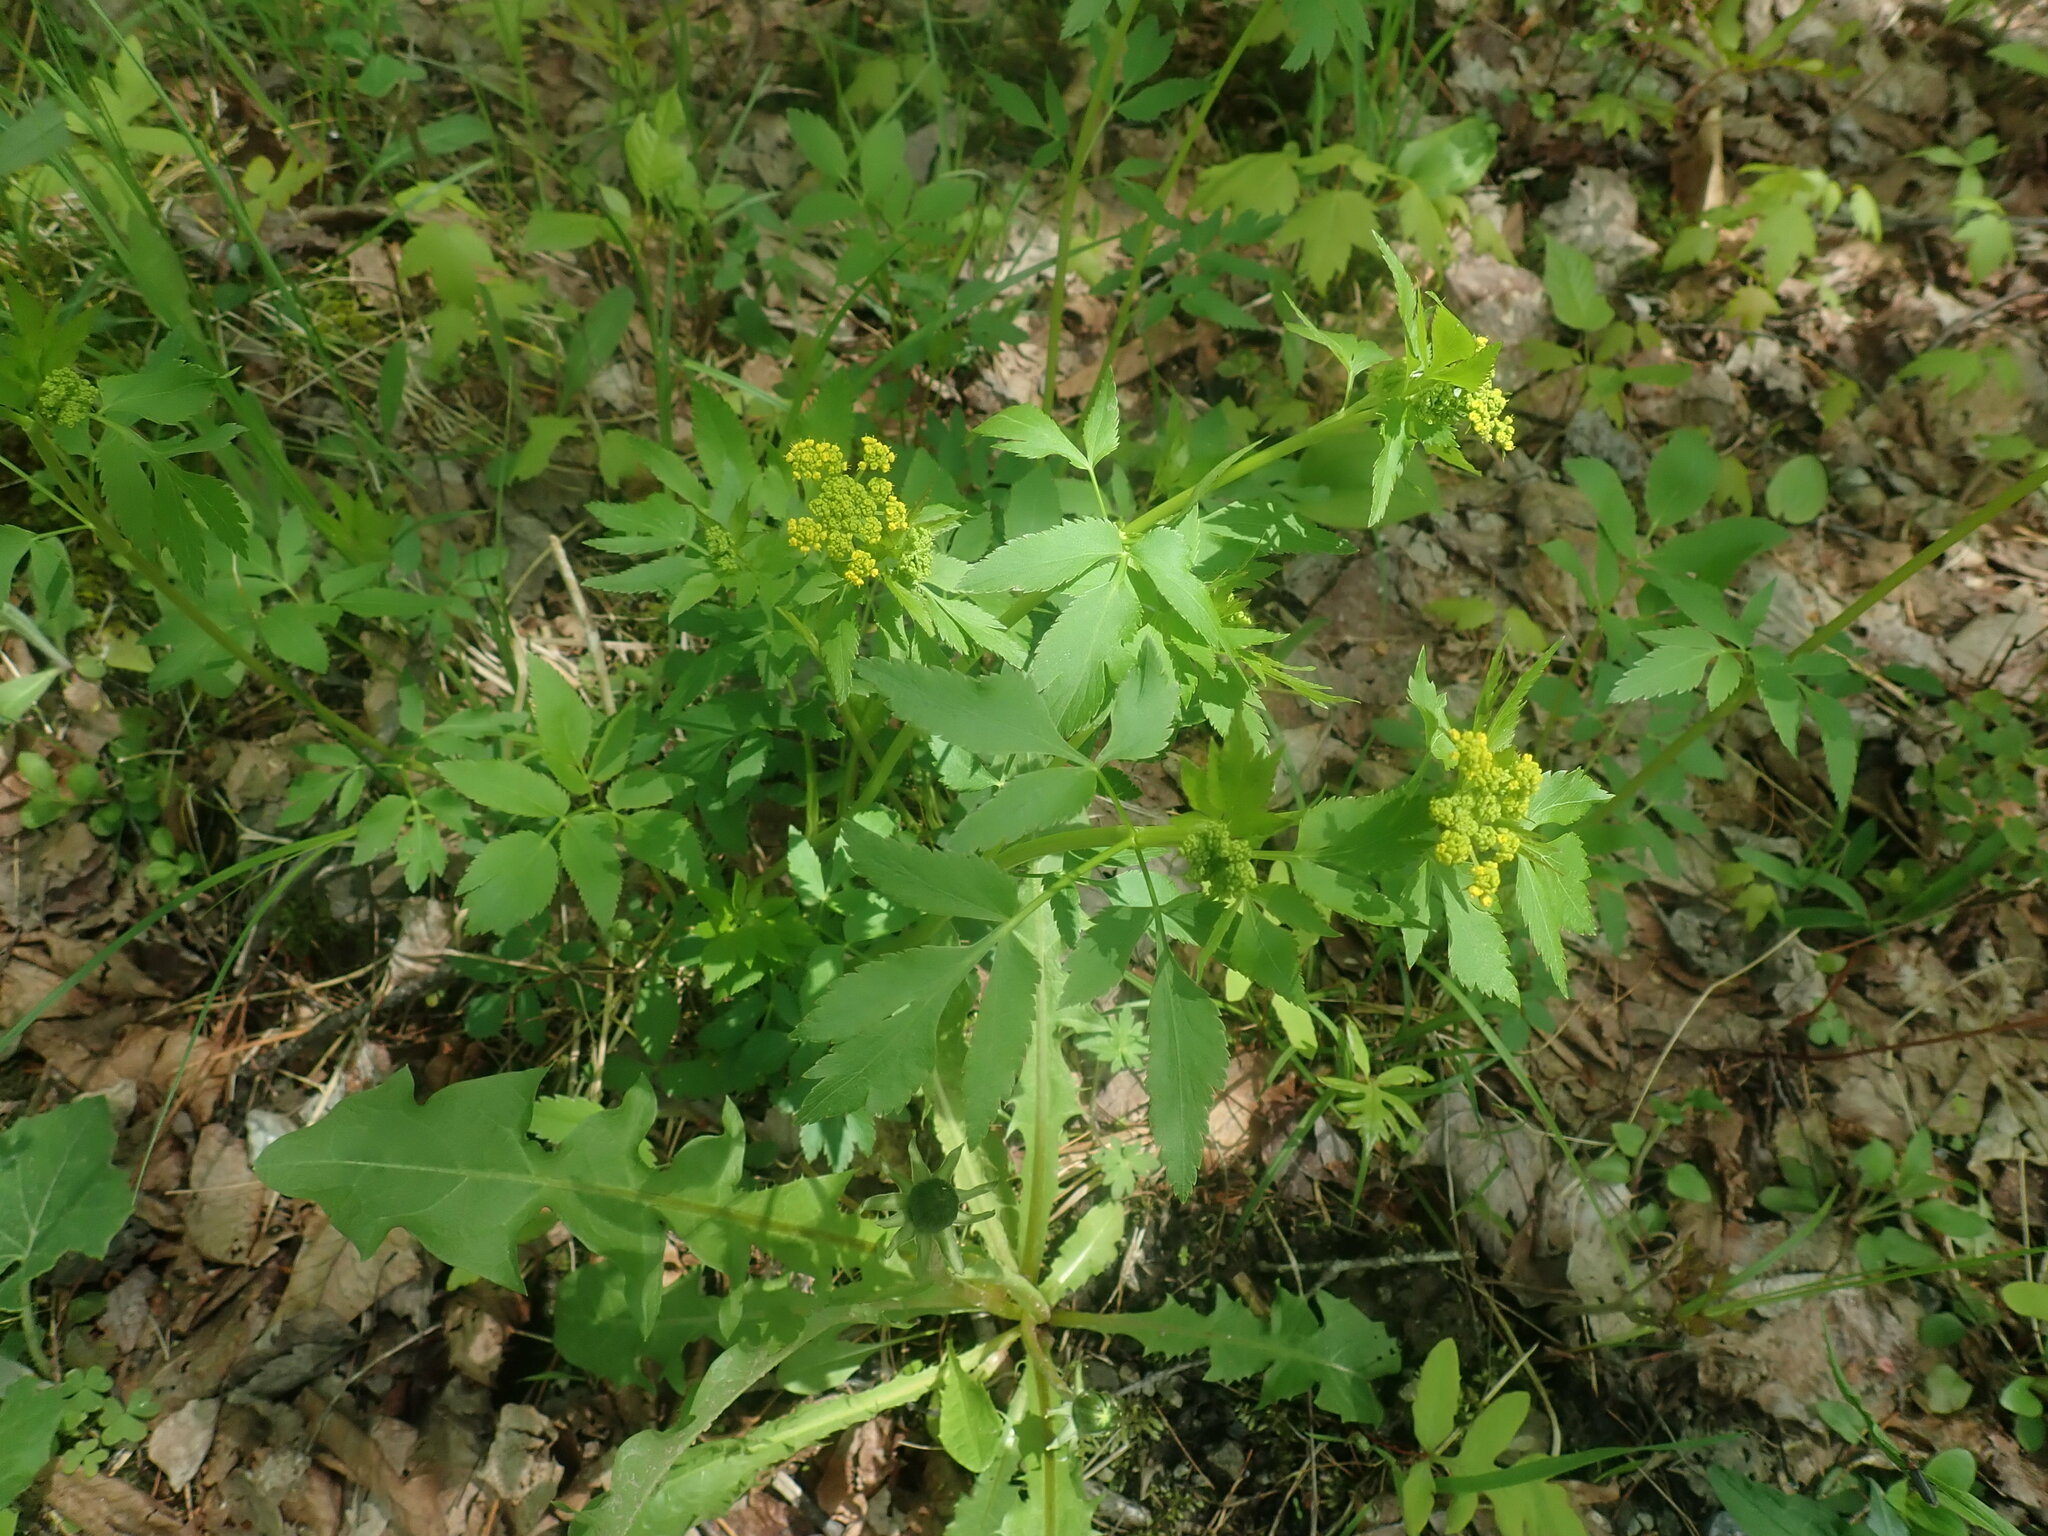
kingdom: Plantae
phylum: Tracheophyta
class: Magnoliopsida
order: Apiales
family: Apiaceae
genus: Zizia
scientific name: Zizia aurea
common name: Golden alexanders
